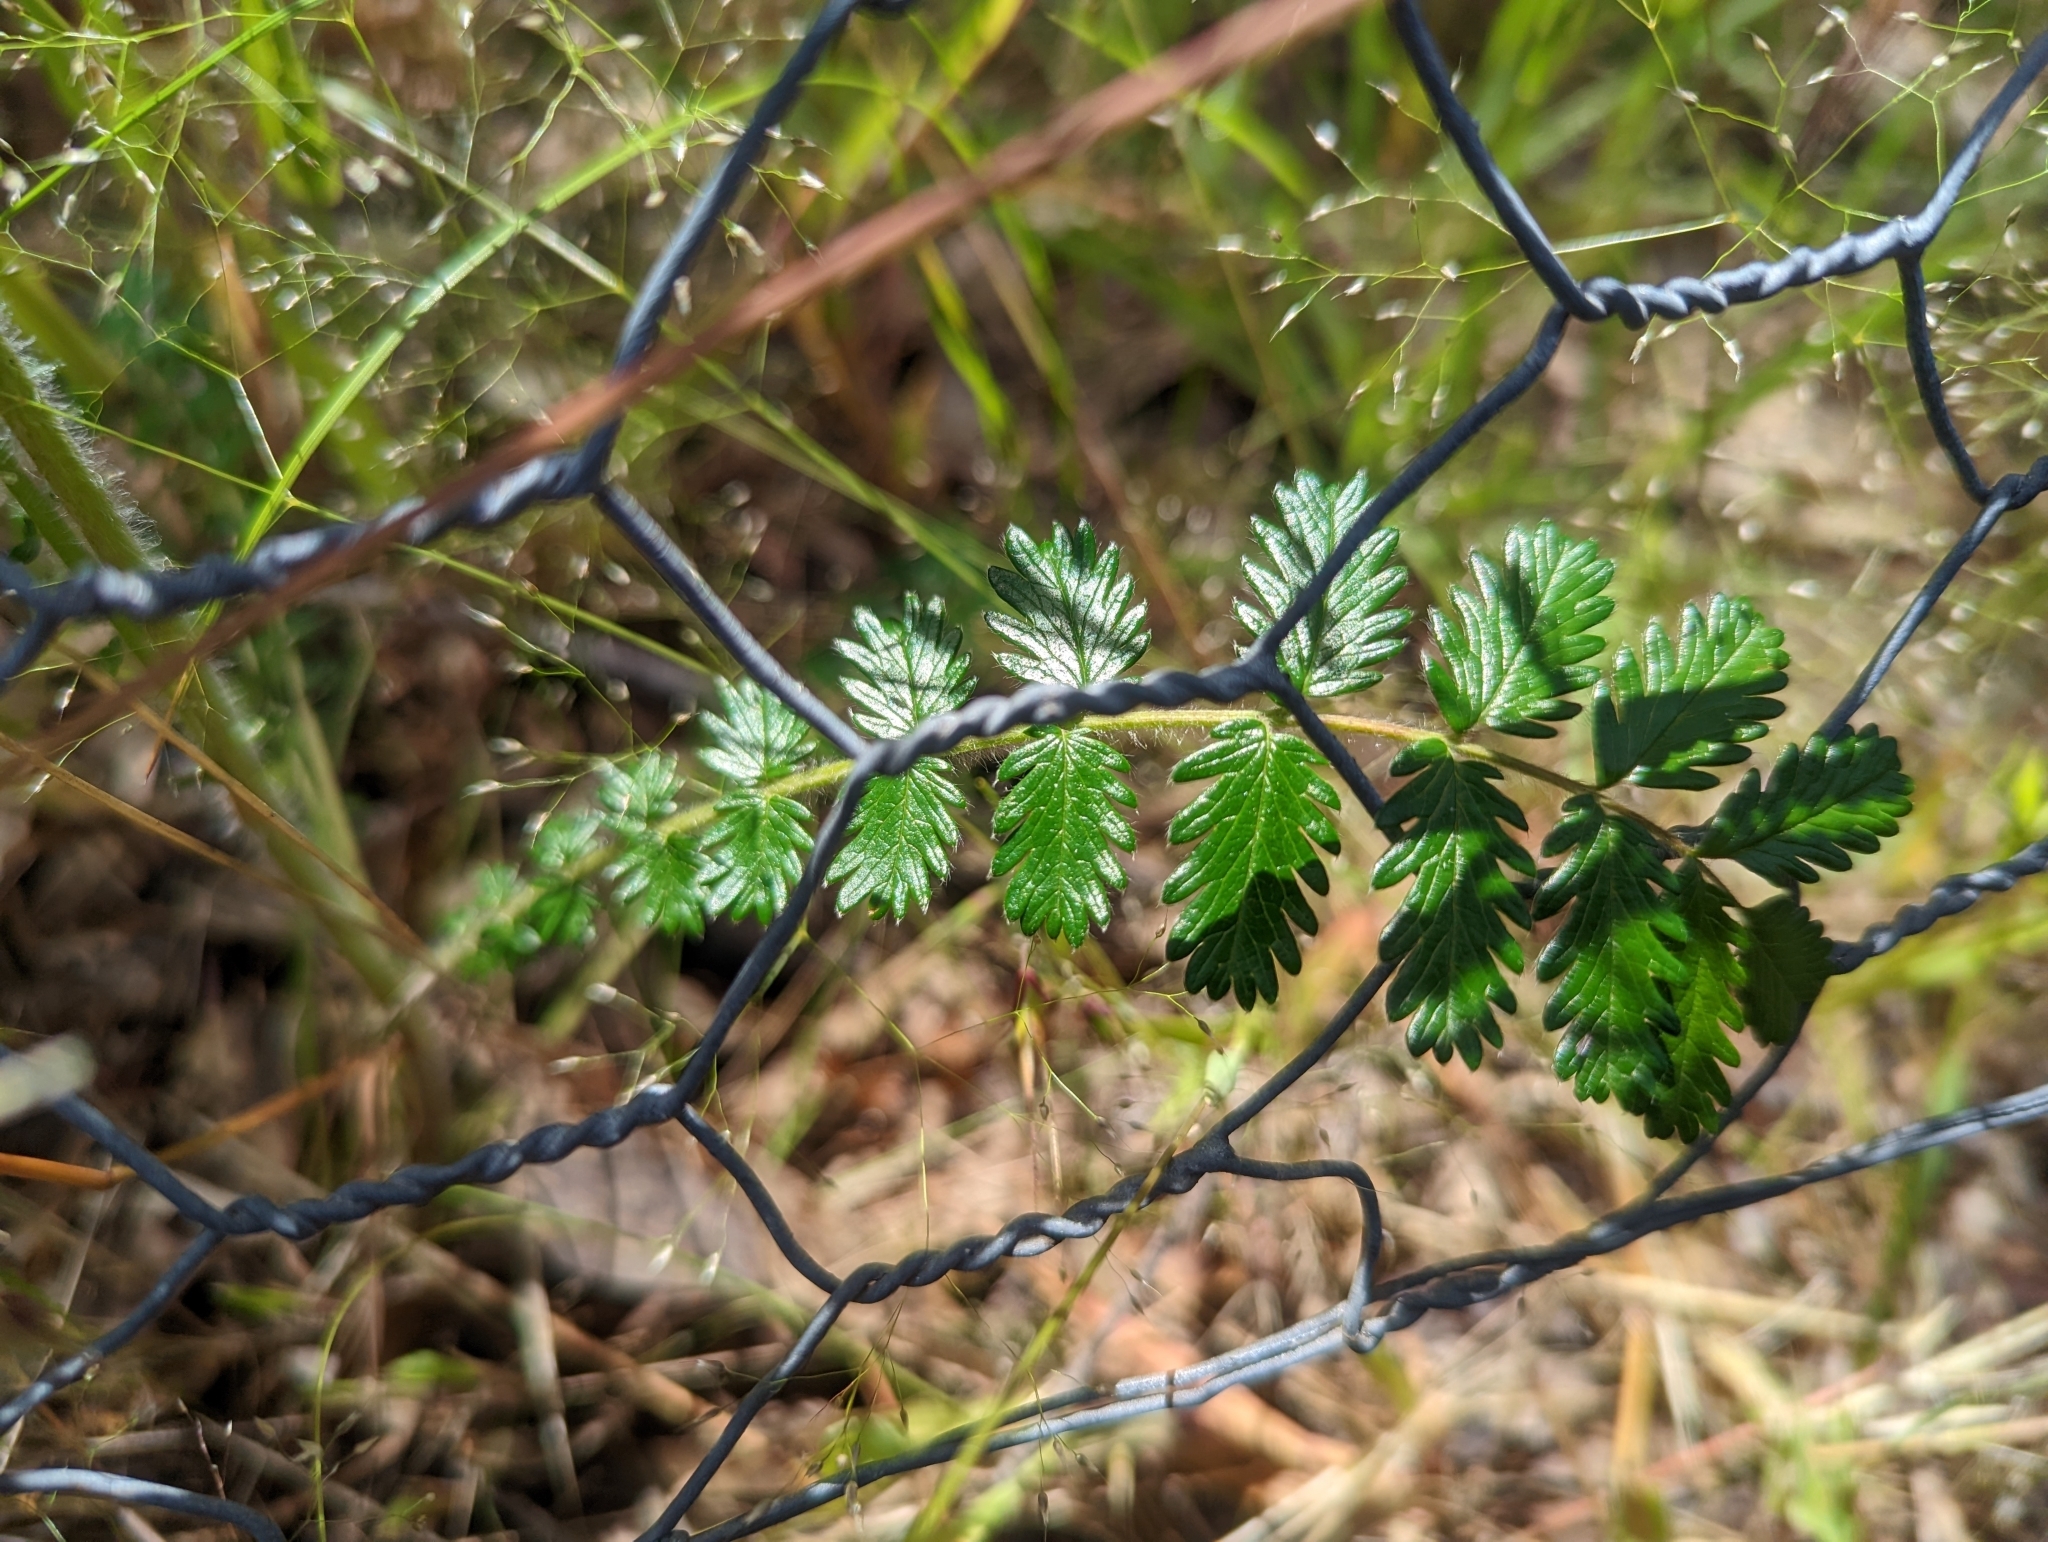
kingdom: Plantae
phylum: Tracheophyta
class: Magnoliopsida
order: Rosales
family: Rosaceae
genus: Acaena
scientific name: Acaena echinata
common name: Sheepbur
